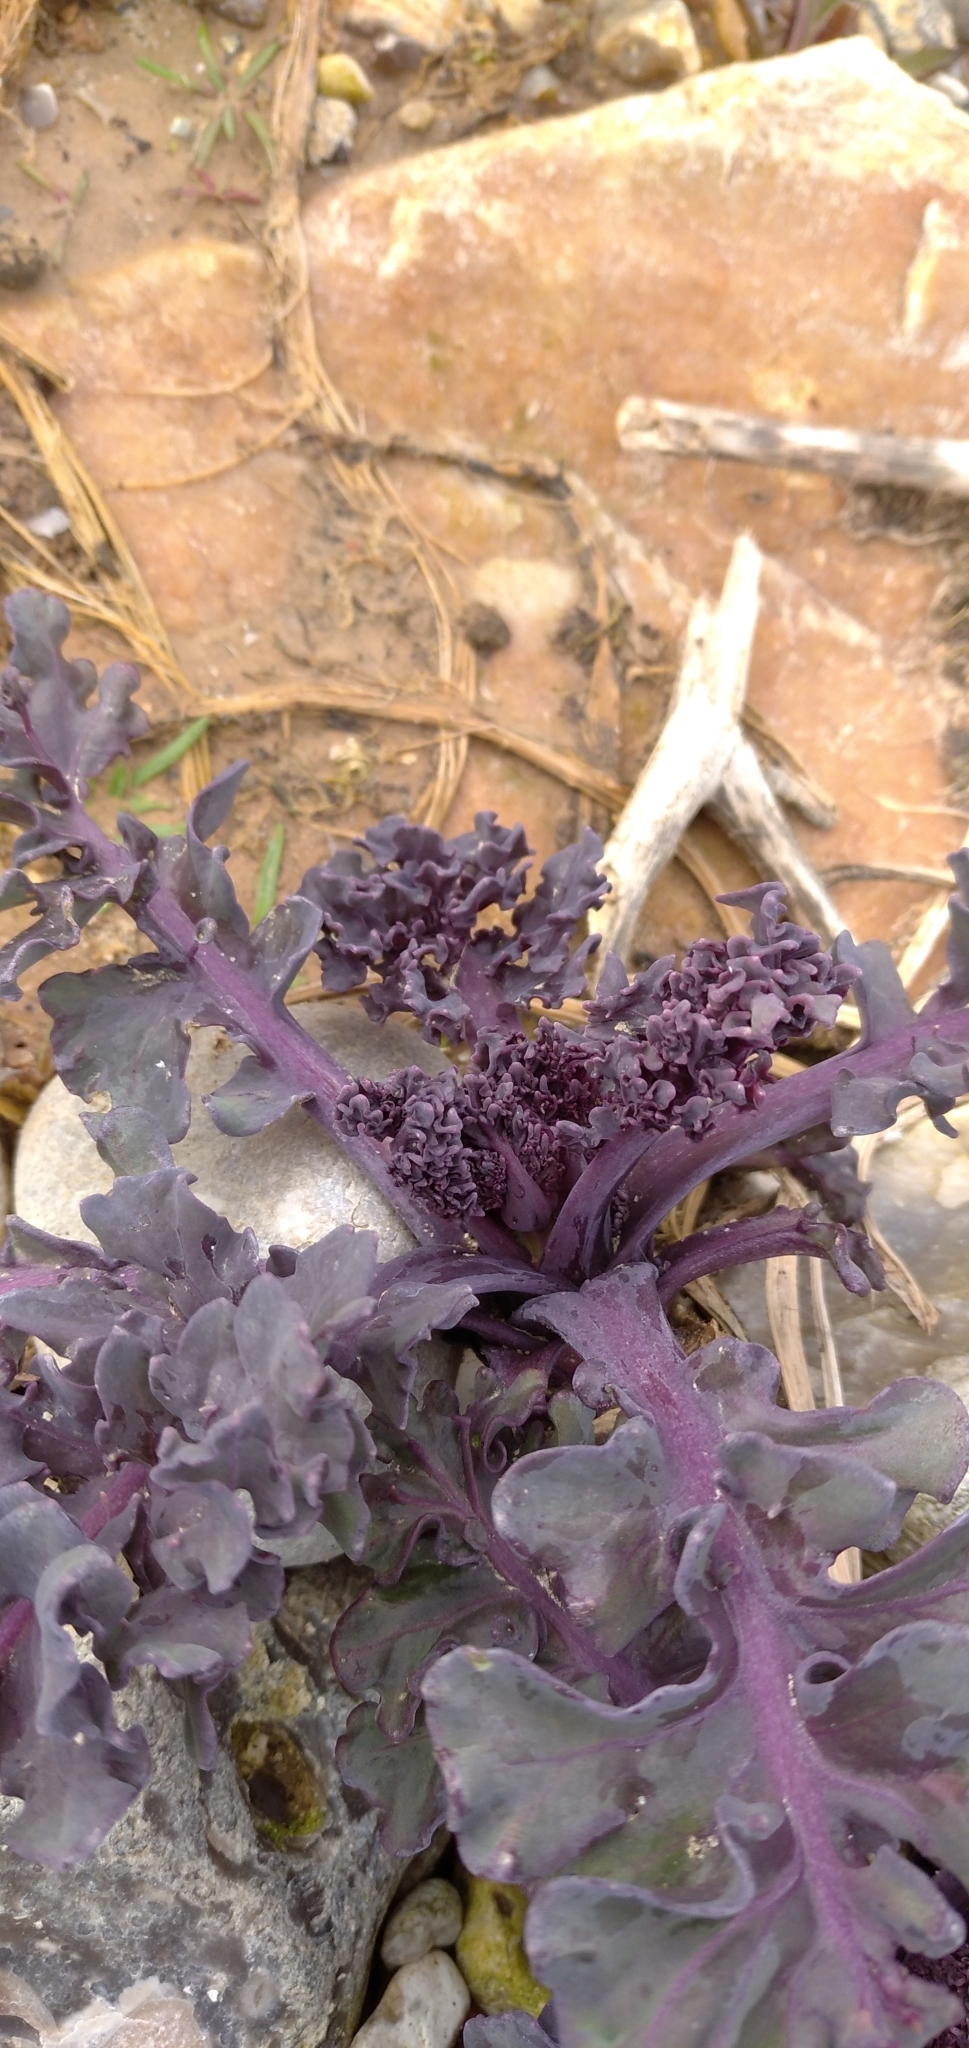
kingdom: Plantae
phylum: Tracheophyta
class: Magnoliopsida
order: Brassicales
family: Brassicaceae
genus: Crambe
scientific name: Crambe maritima
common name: Sea-kale
